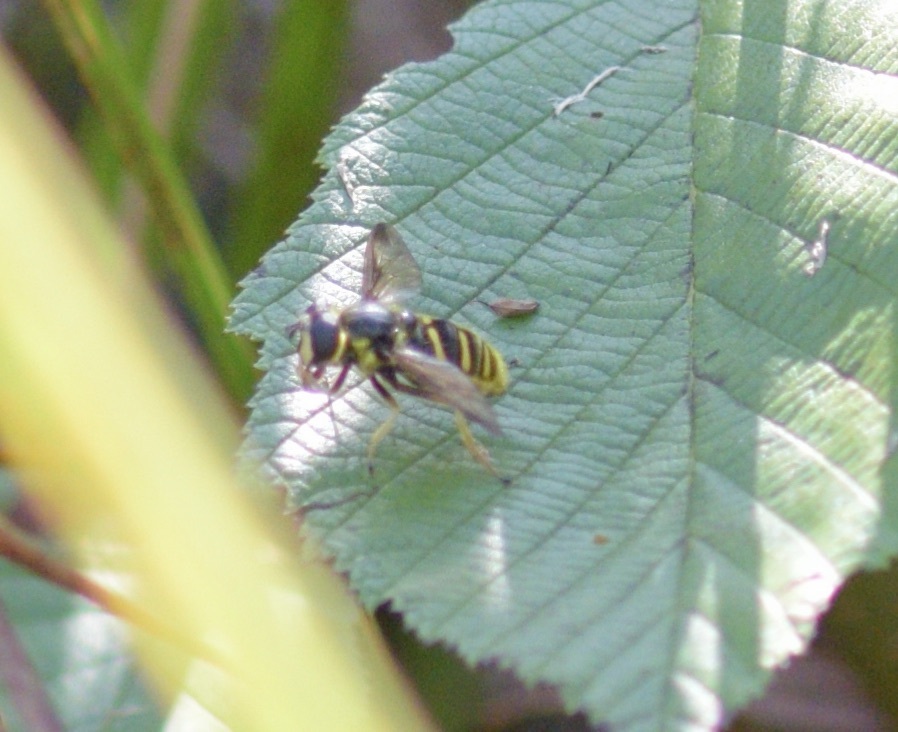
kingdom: Animalia
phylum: Arthropoda
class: Insecta
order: Diptera
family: Syrphidae
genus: Sericomyia
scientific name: Sericomyia chrysotoxoides
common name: Oblique-banded pond fly
